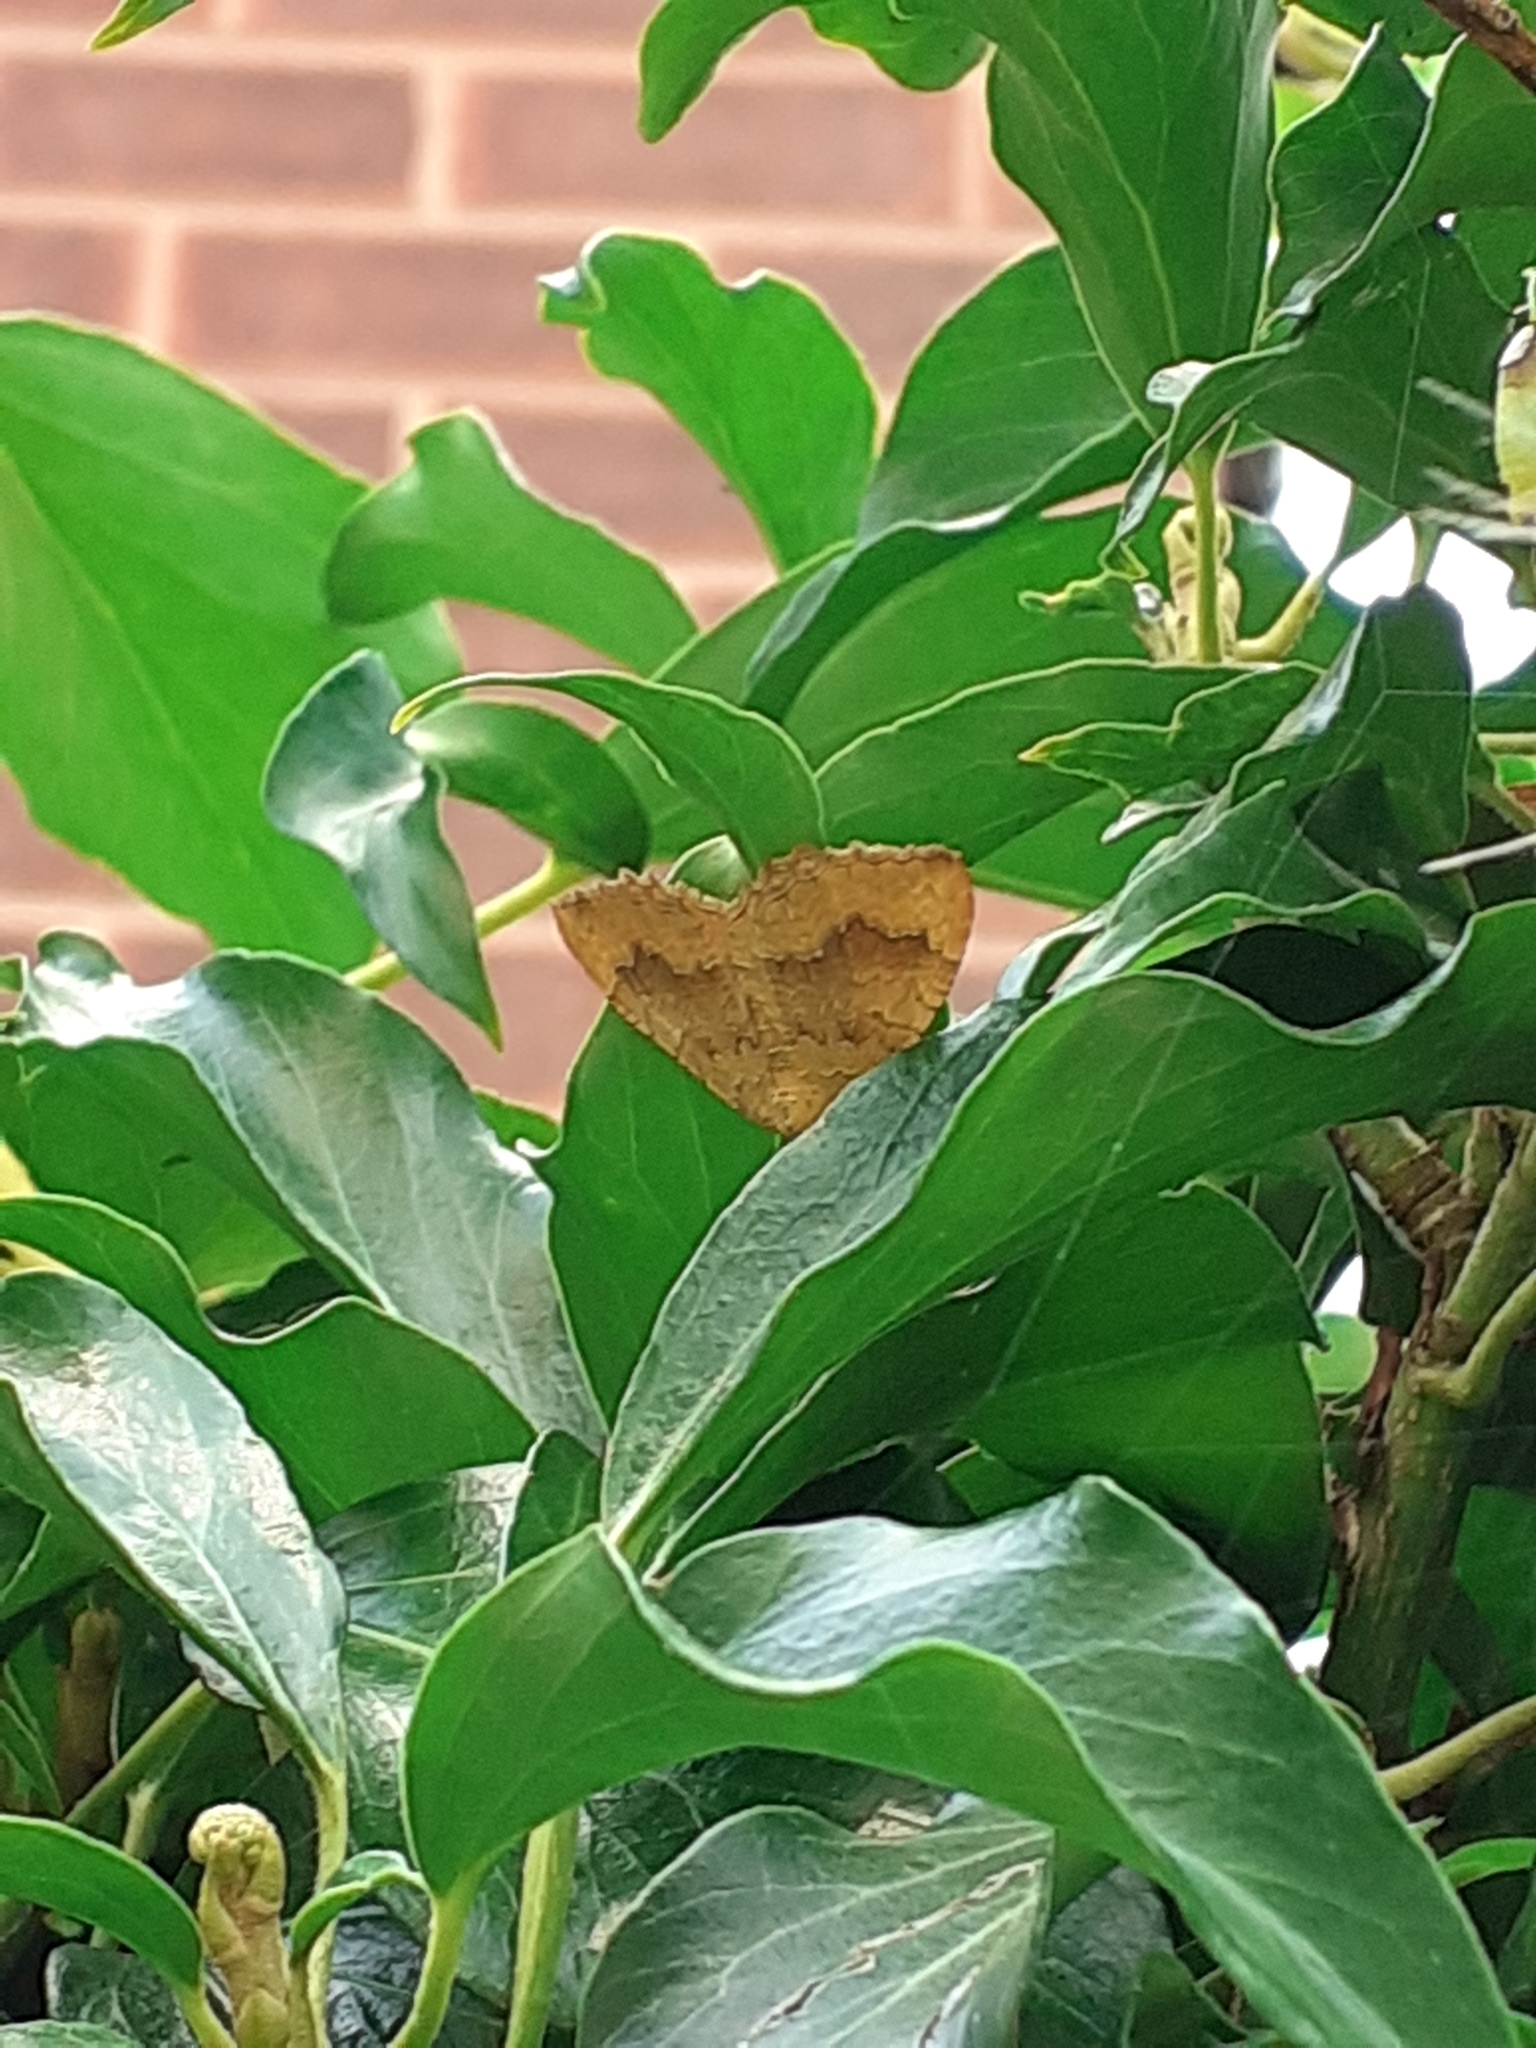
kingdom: Animalia
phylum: Arthropoda
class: Insecta
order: Lepidoptera
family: Geometridae
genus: Camptogramma
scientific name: Camptogramma bilineata
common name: Yellow shell
